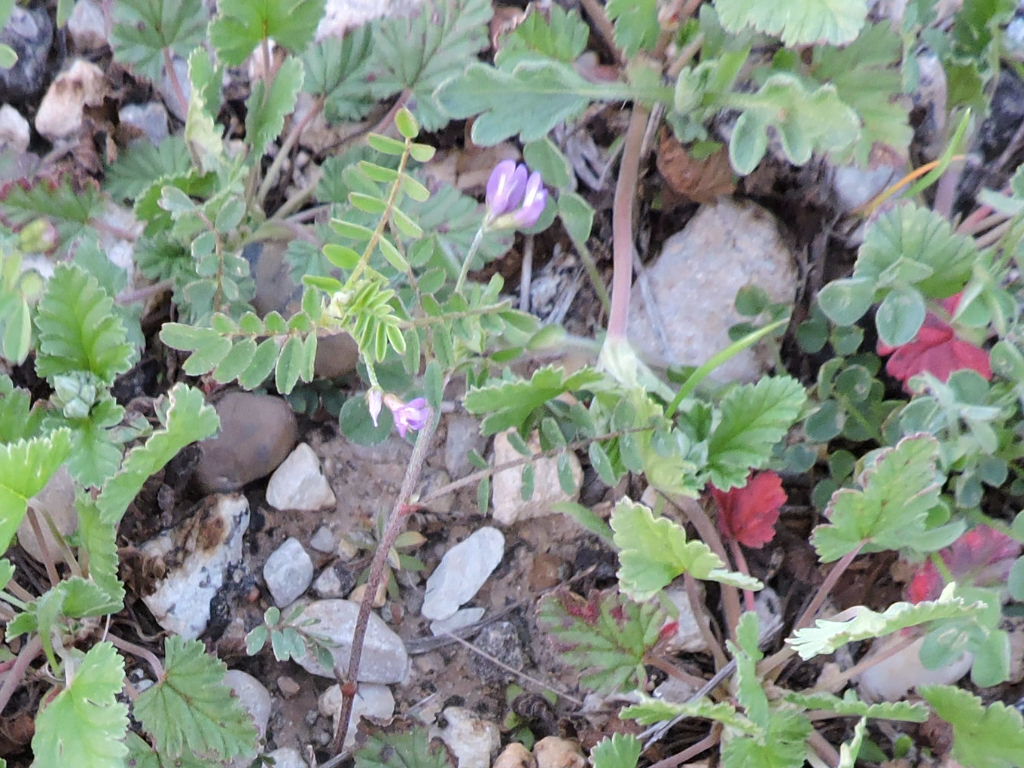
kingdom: Plantae
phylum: Tracheophyta
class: Magnoliopsida
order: Fabales
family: Fabaceae
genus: Astragalus
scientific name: Astragalus leptocarpus
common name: Bodkin milk-vetch
